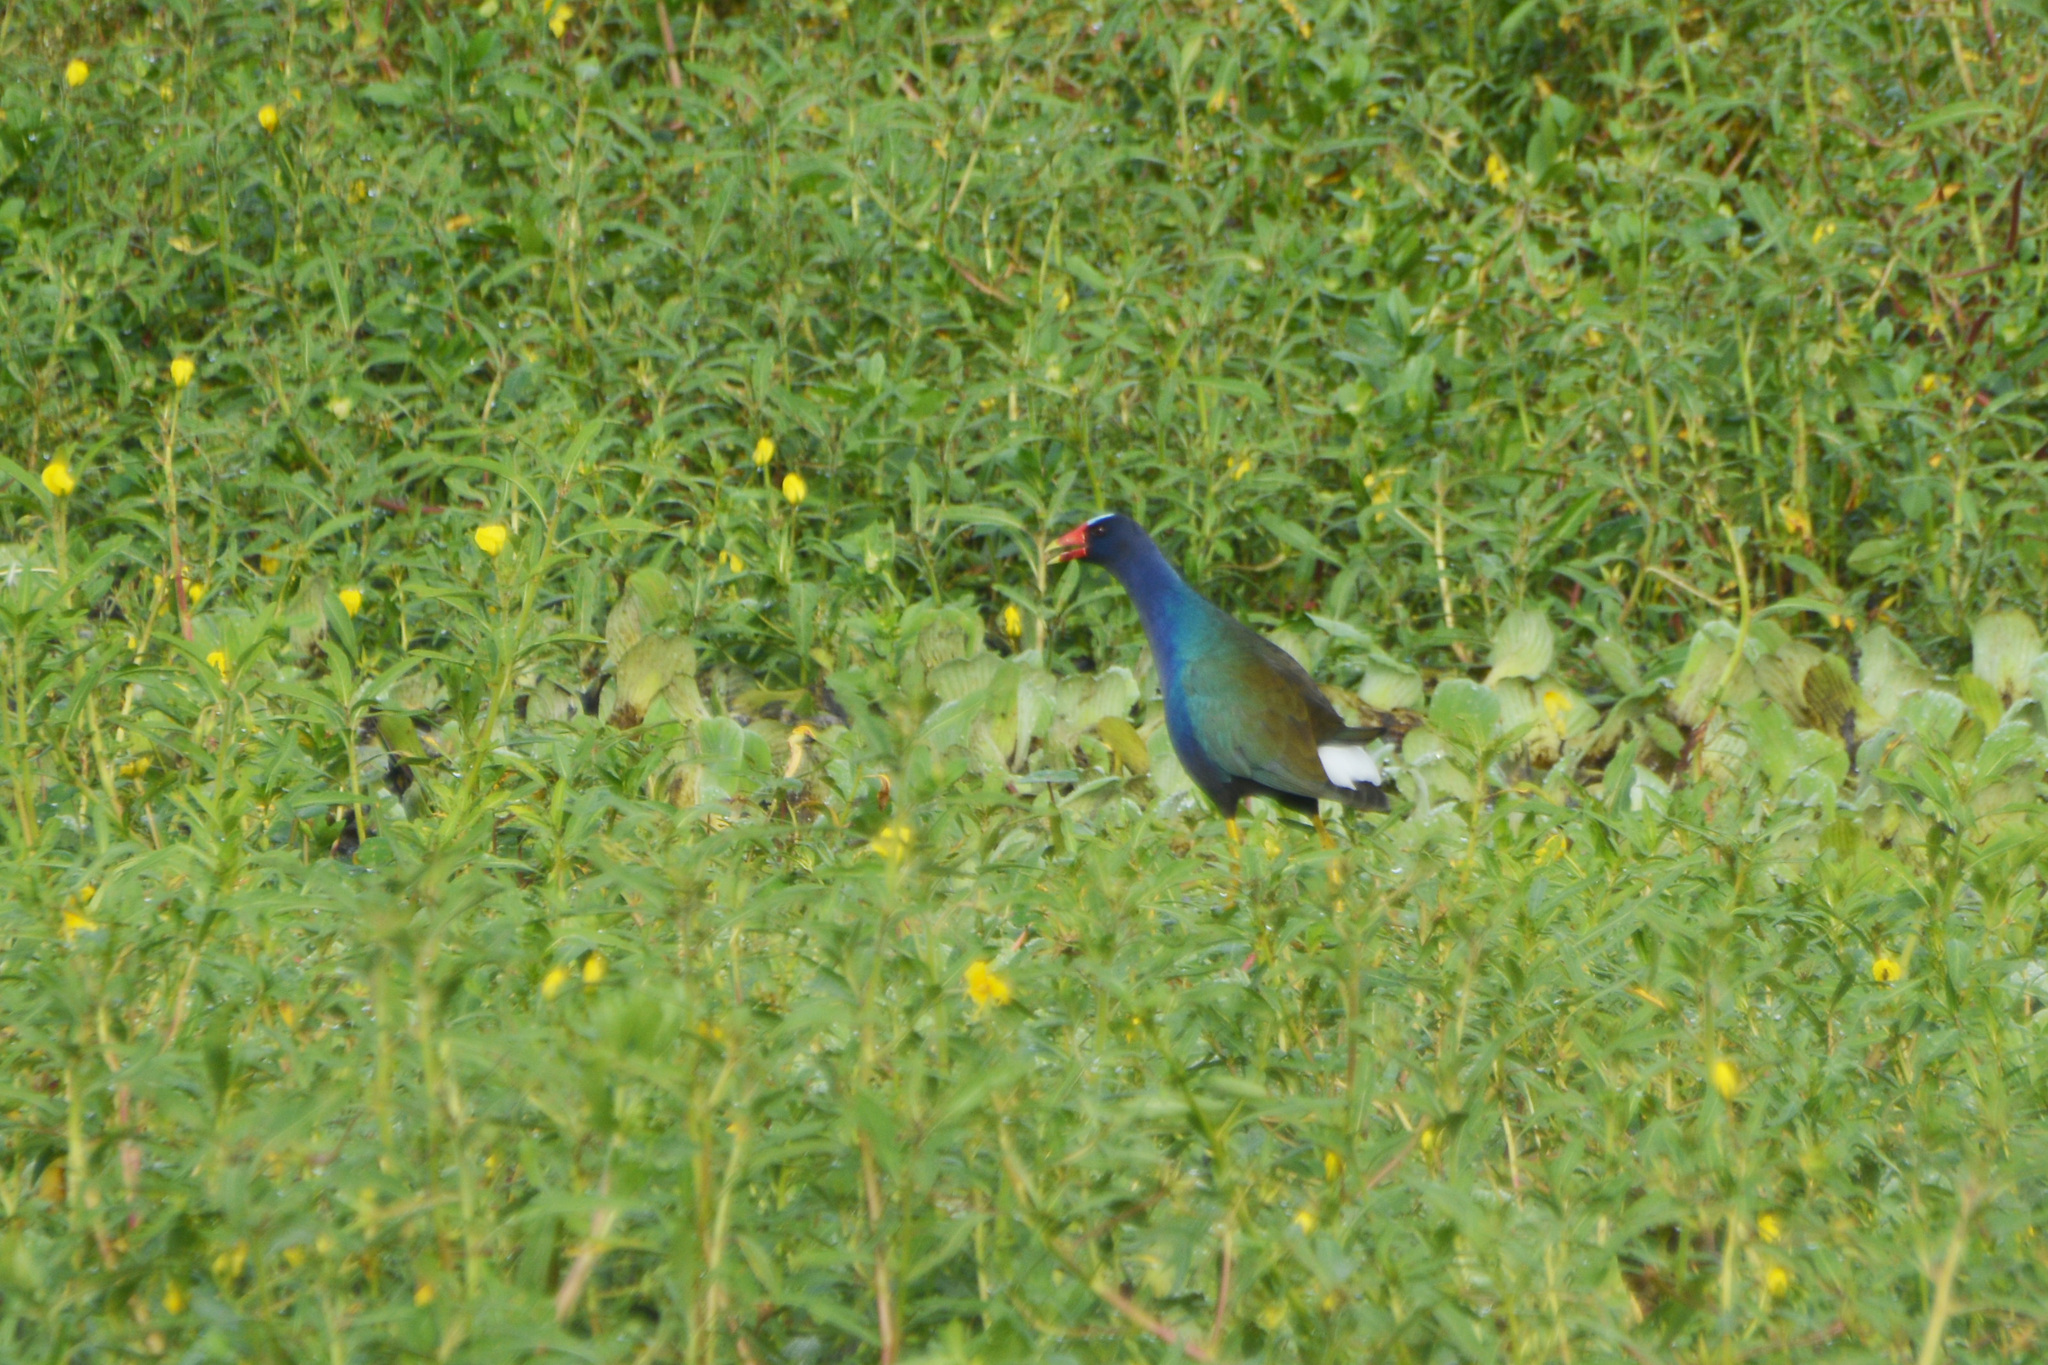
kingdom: Animalia
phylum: Chordata
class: Aves
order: Gruiformes
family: Rallidae
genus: Porphyrio
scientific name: Porphyrio martinica
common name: Purple gallinule
